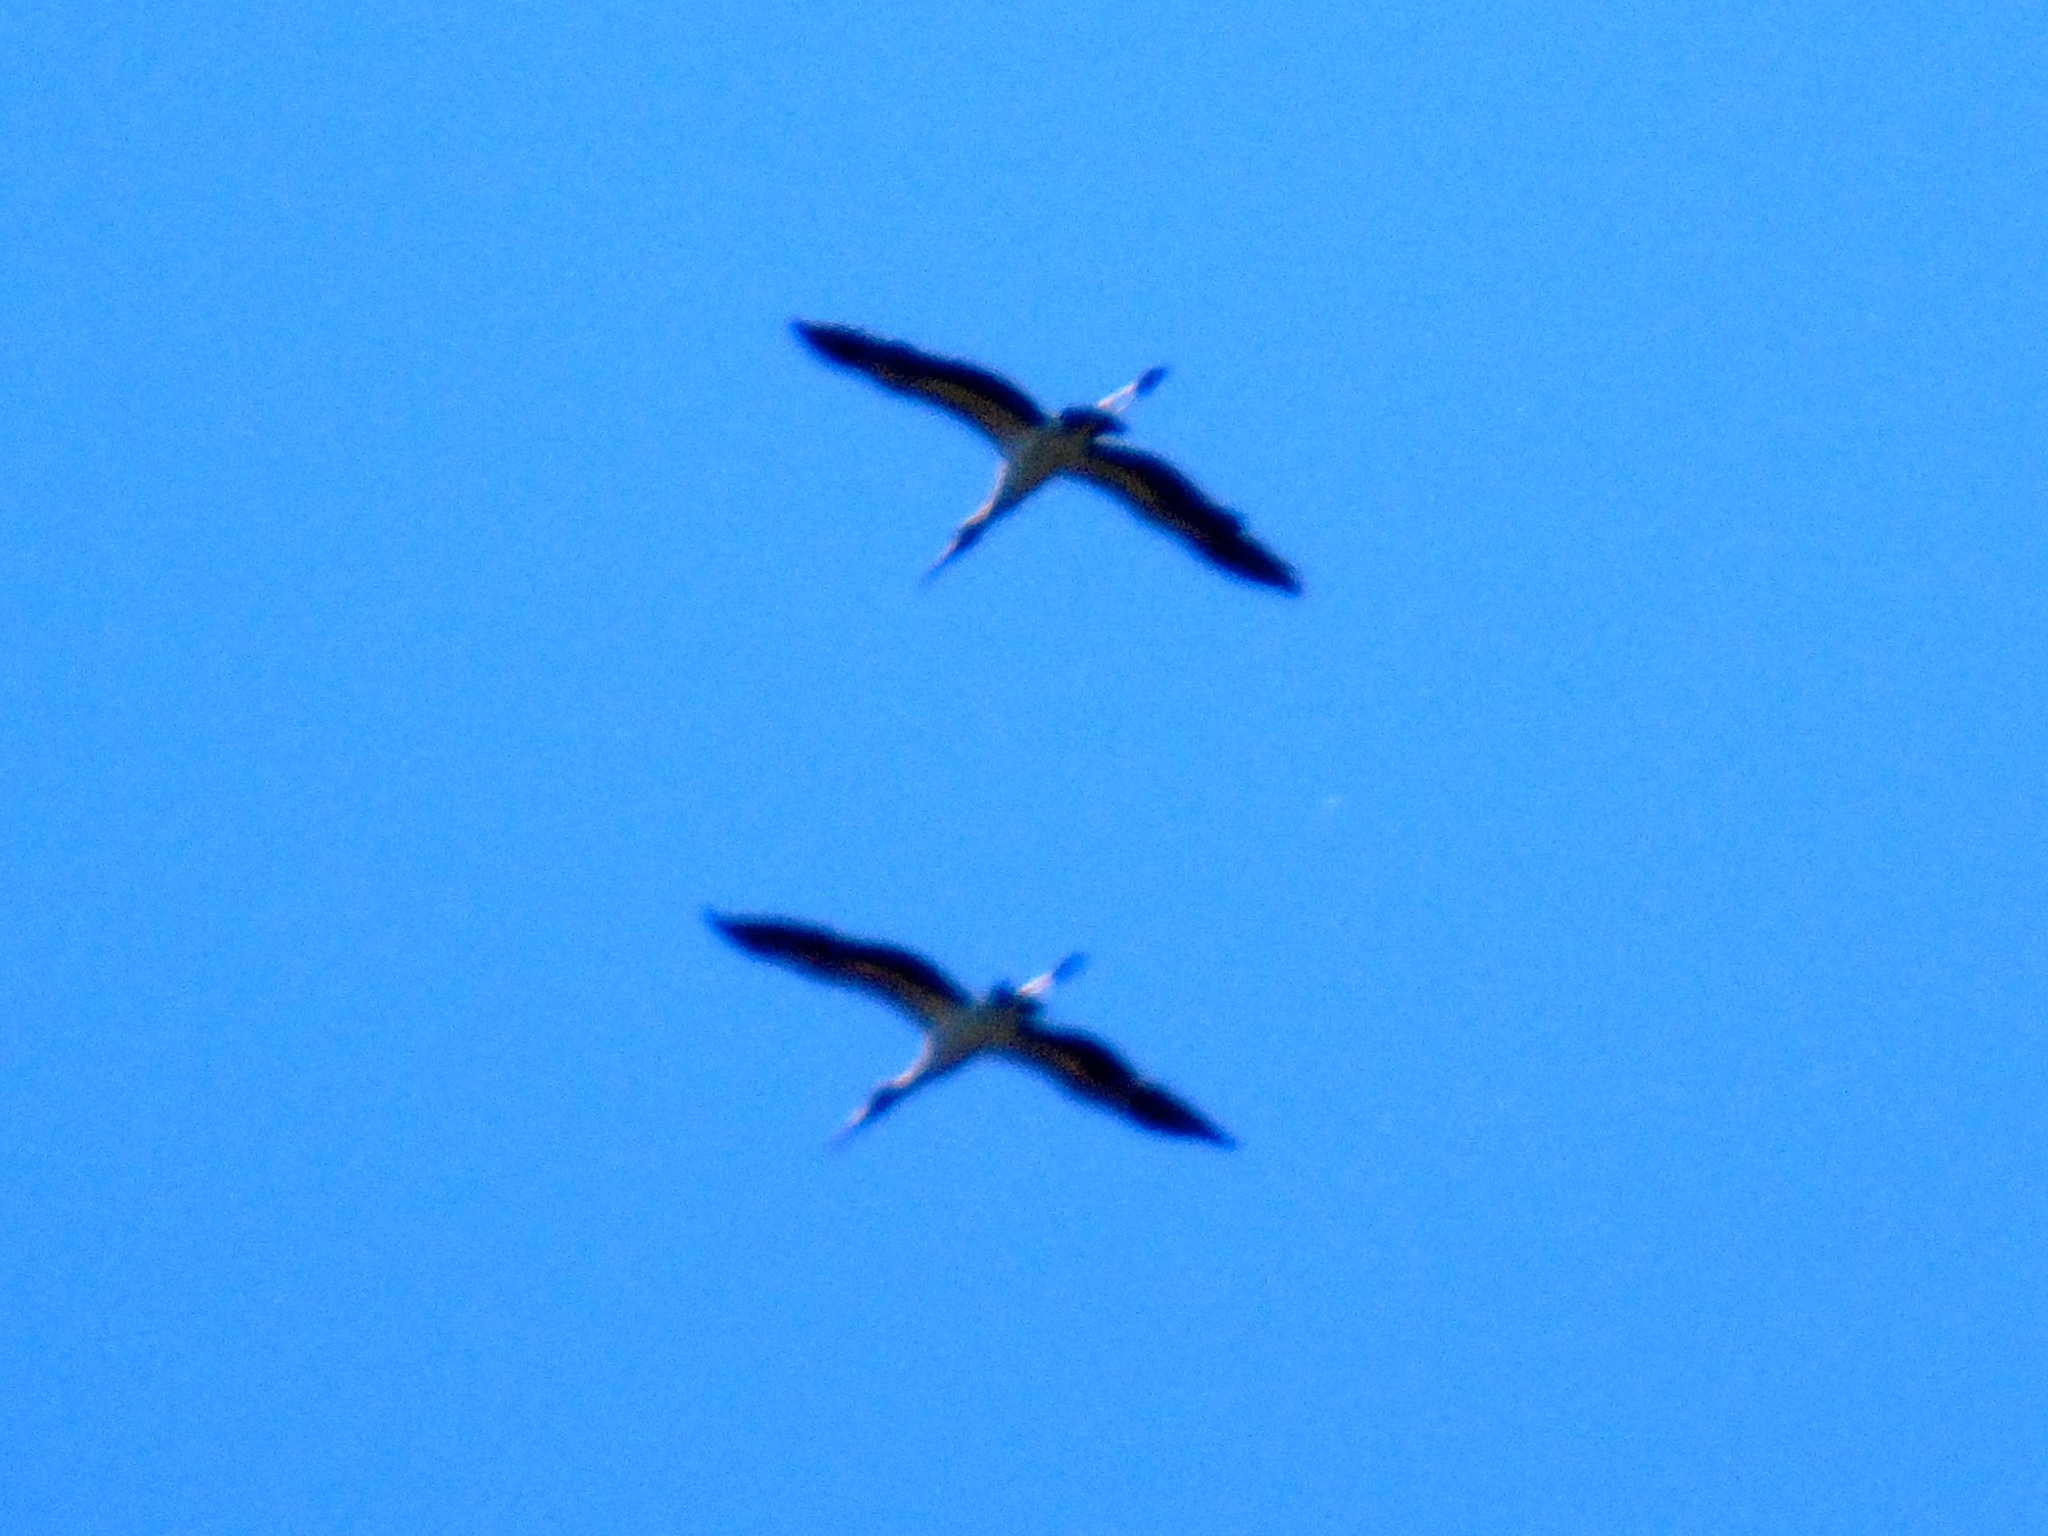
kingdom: Animalia
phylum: Chordata
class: Aves
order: Ciconiiformes
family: Ciconiidae
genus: Mycteria
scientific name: Mycteria americana
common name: Wood stork
